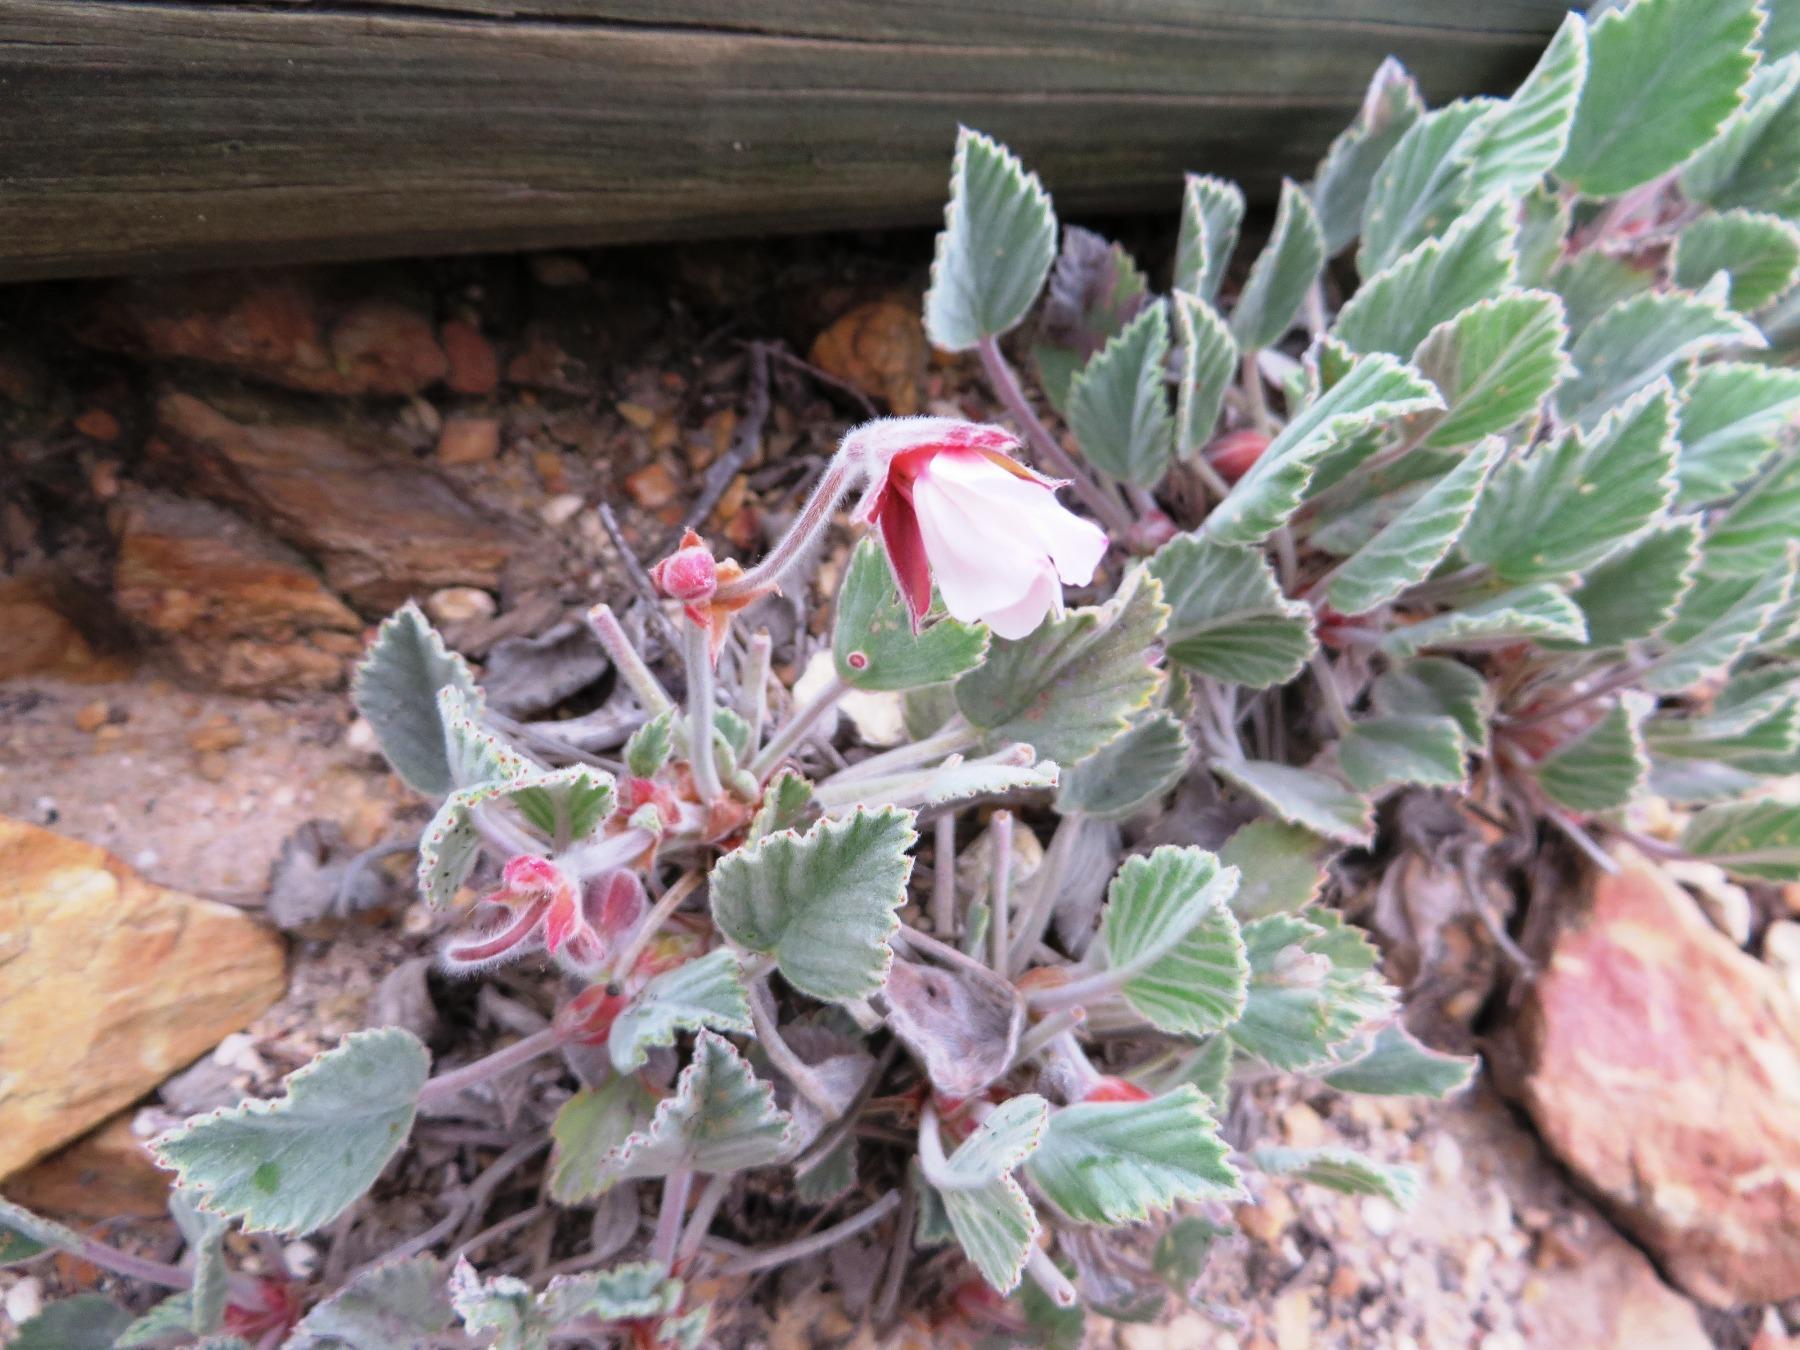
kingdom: Plantae
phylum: Tracheophyta
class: Magnoliopsida
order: Geraniales
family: Geraniaceae
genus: Pelargonium
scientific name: Pelargonium ovale
